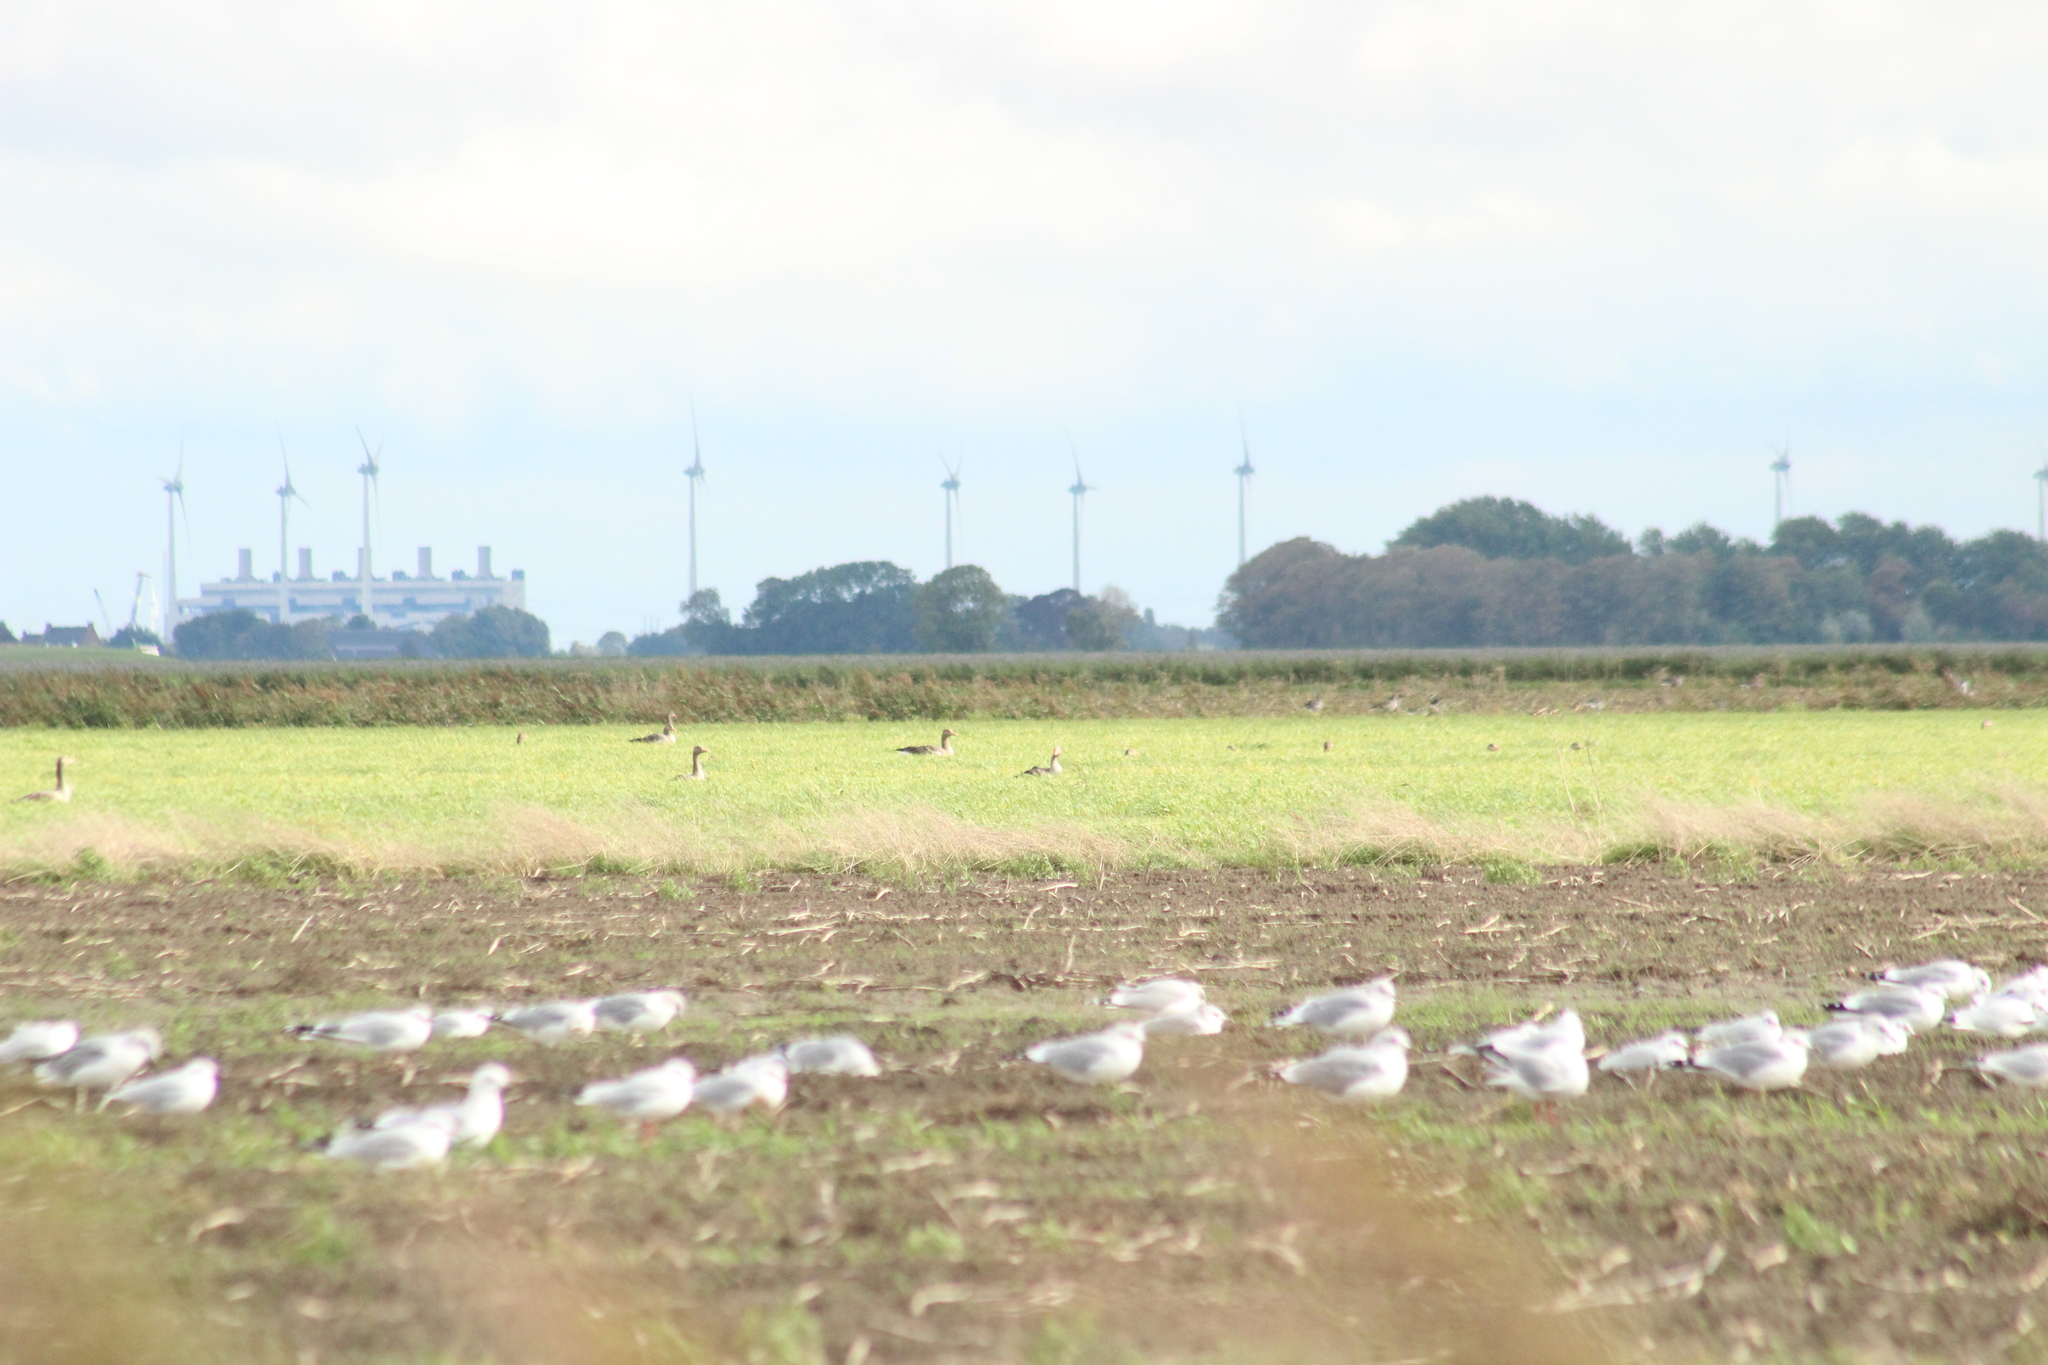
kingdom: Animalia
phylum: Chordata
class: Aves
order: Anseriformes
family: Anatidae
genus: Anser
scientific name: Anser anser
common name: Greylag goose
